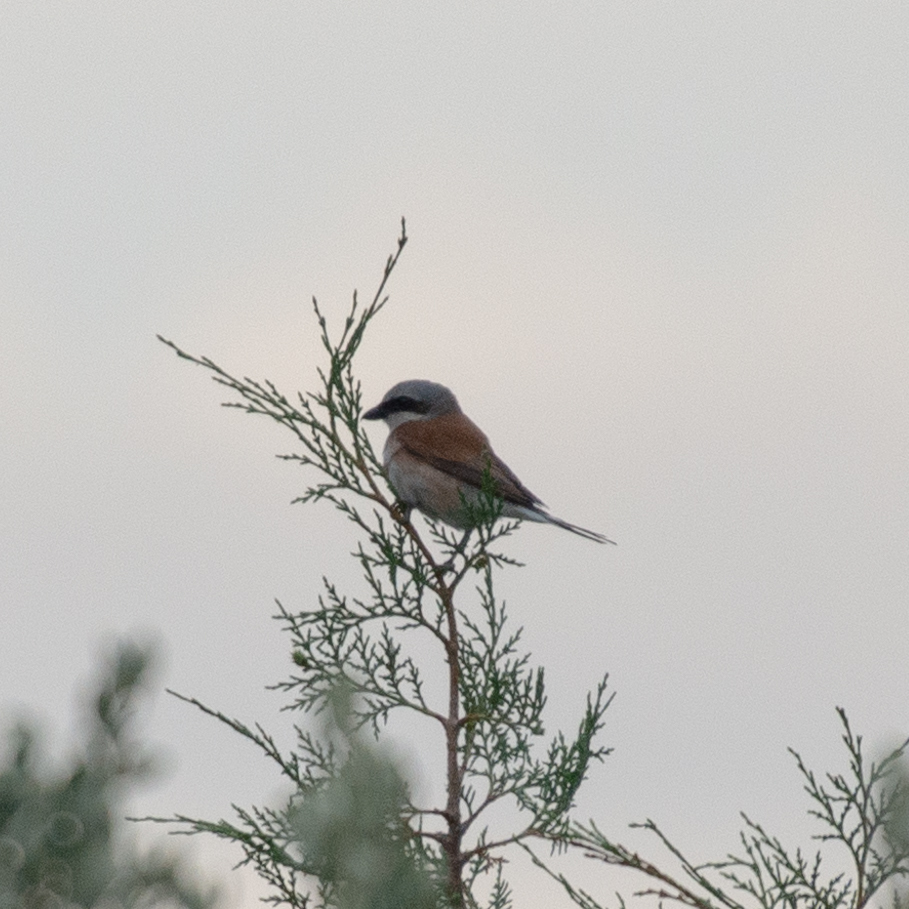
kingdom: Animalia
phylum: Chordata
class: Aves
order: Passeriformes
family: Laniidae
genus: Lanius
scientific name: Lanius collurio
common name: Red-backed shrike
